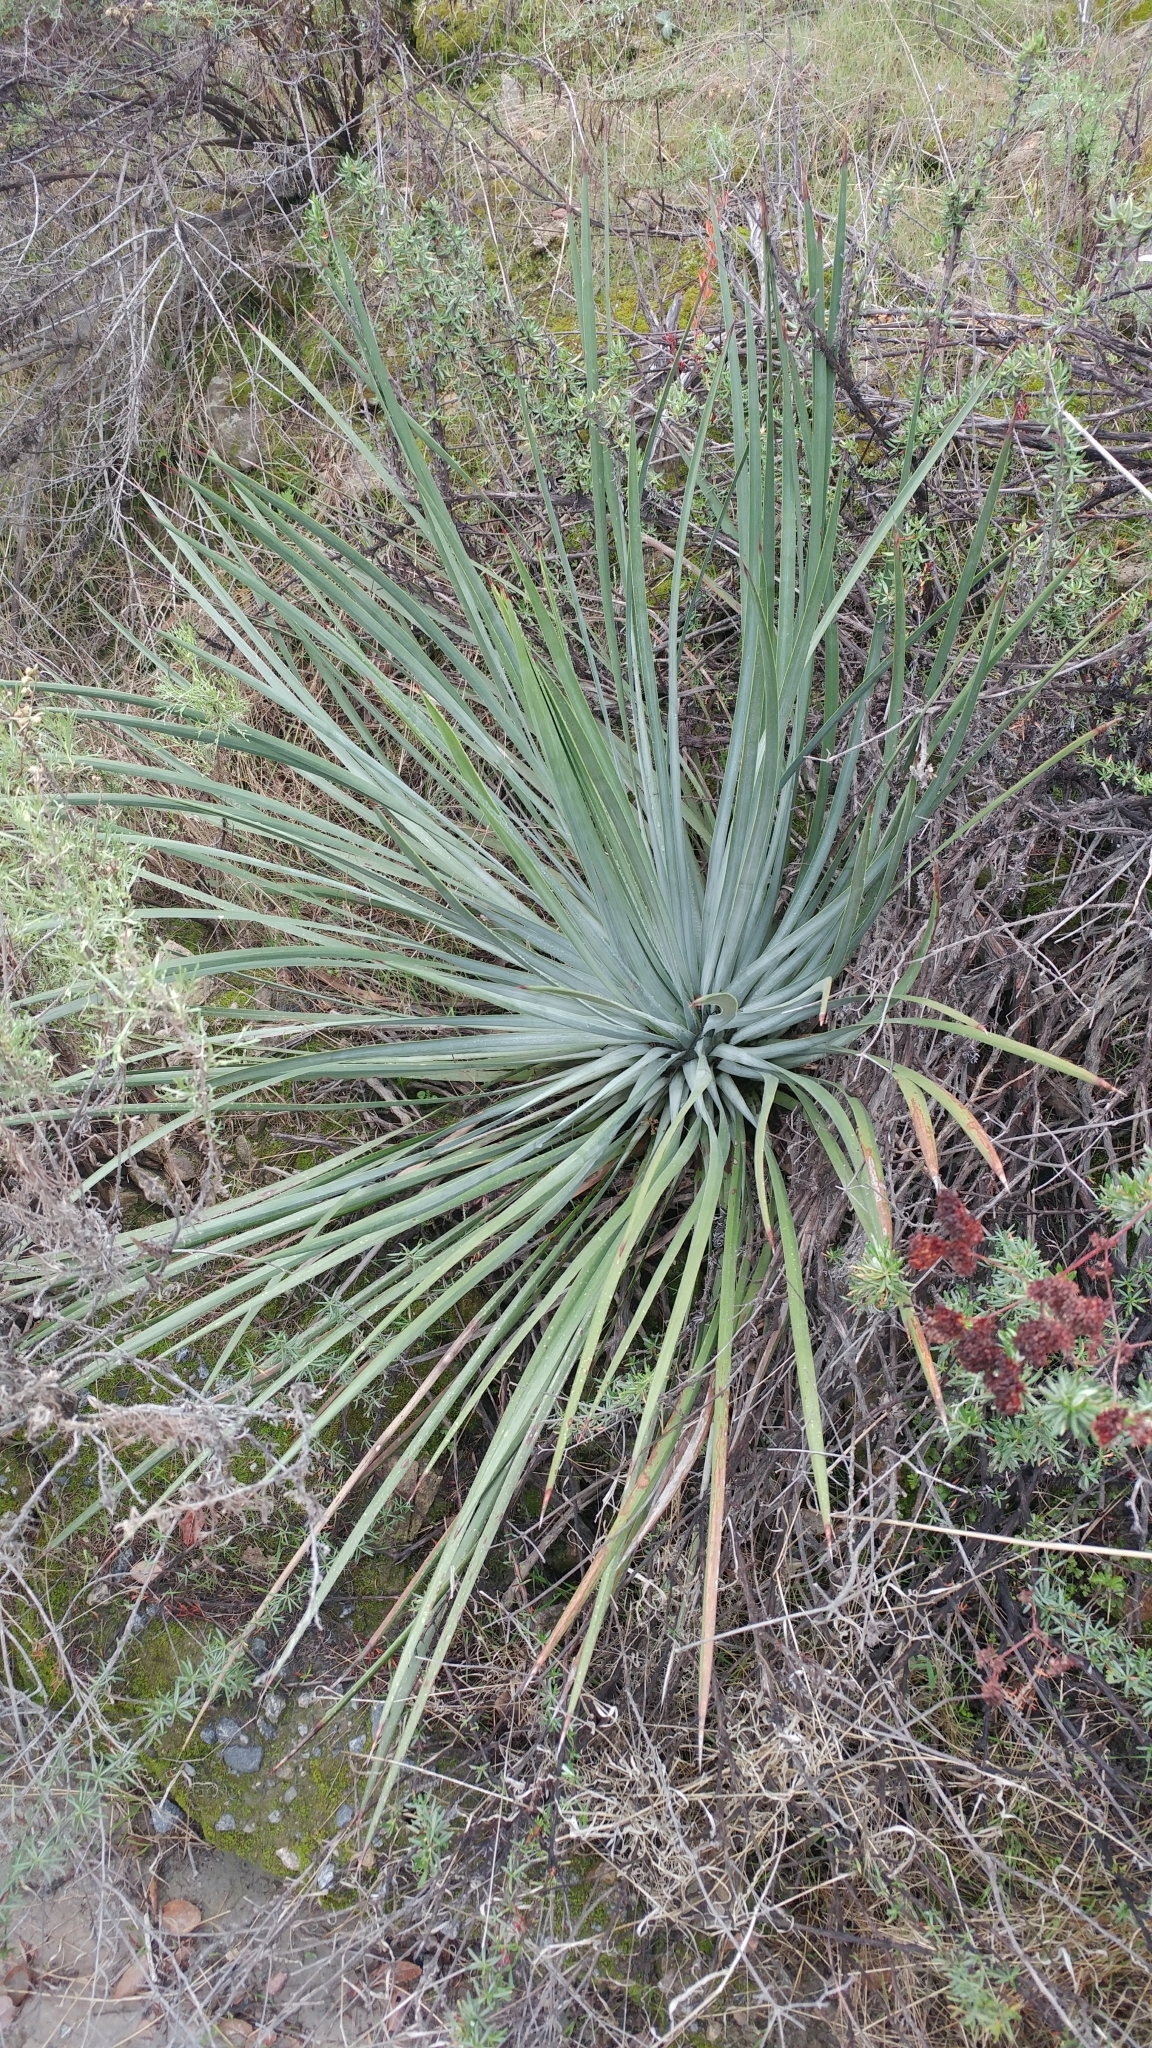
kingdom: Plantae
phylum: Tracheophyta
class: Liliopsida
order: Asparagales
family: Asparagaceae
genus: Hesperoyucca
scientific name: Hesperoyucca whipplei
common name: Our lord's-candle
